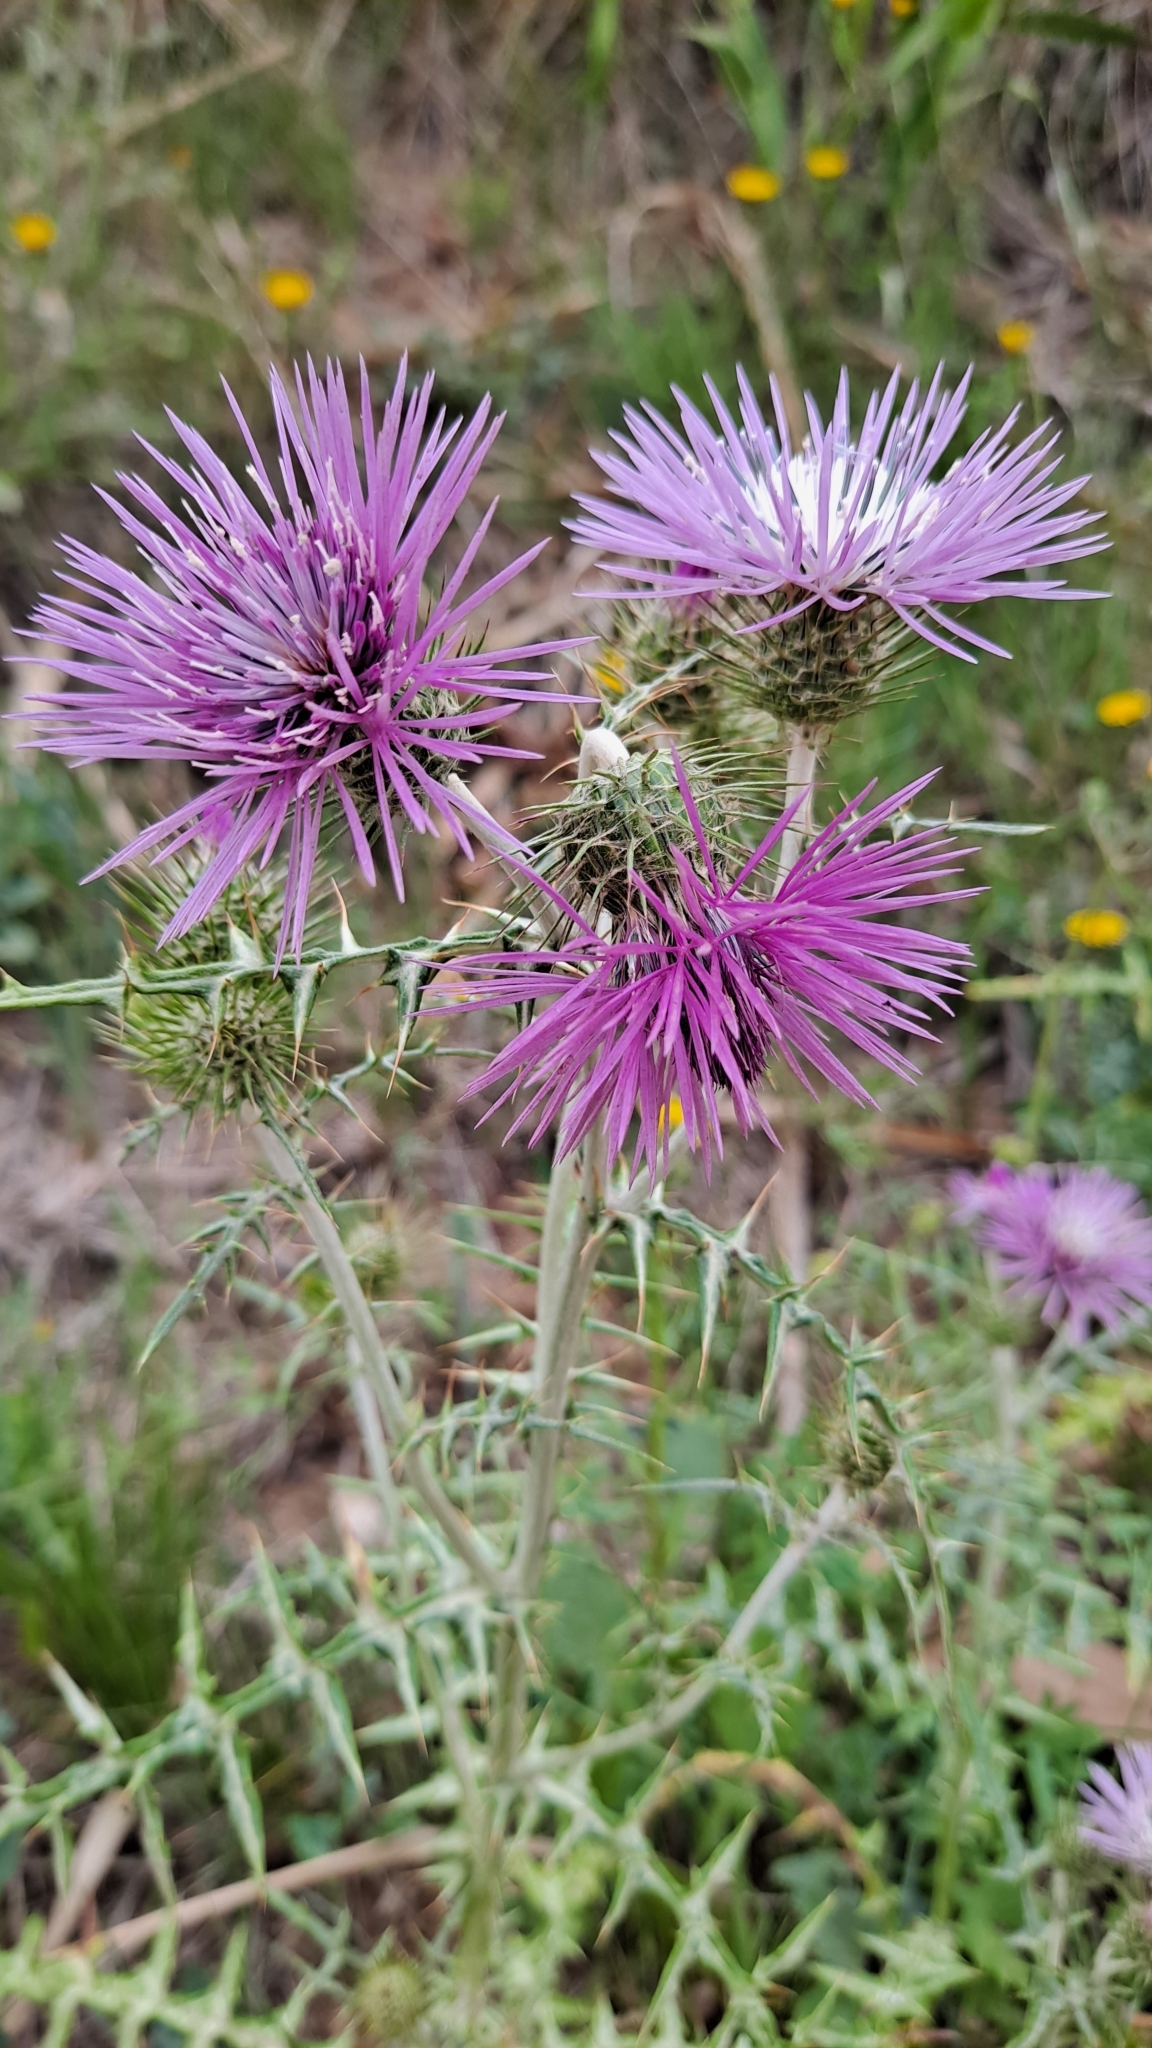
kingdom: Plantae
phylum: Tracheophyta
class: Magnoliopsida
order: Asterales
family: Asteraceae
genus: Galactites
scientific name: Galactites tomentosa
